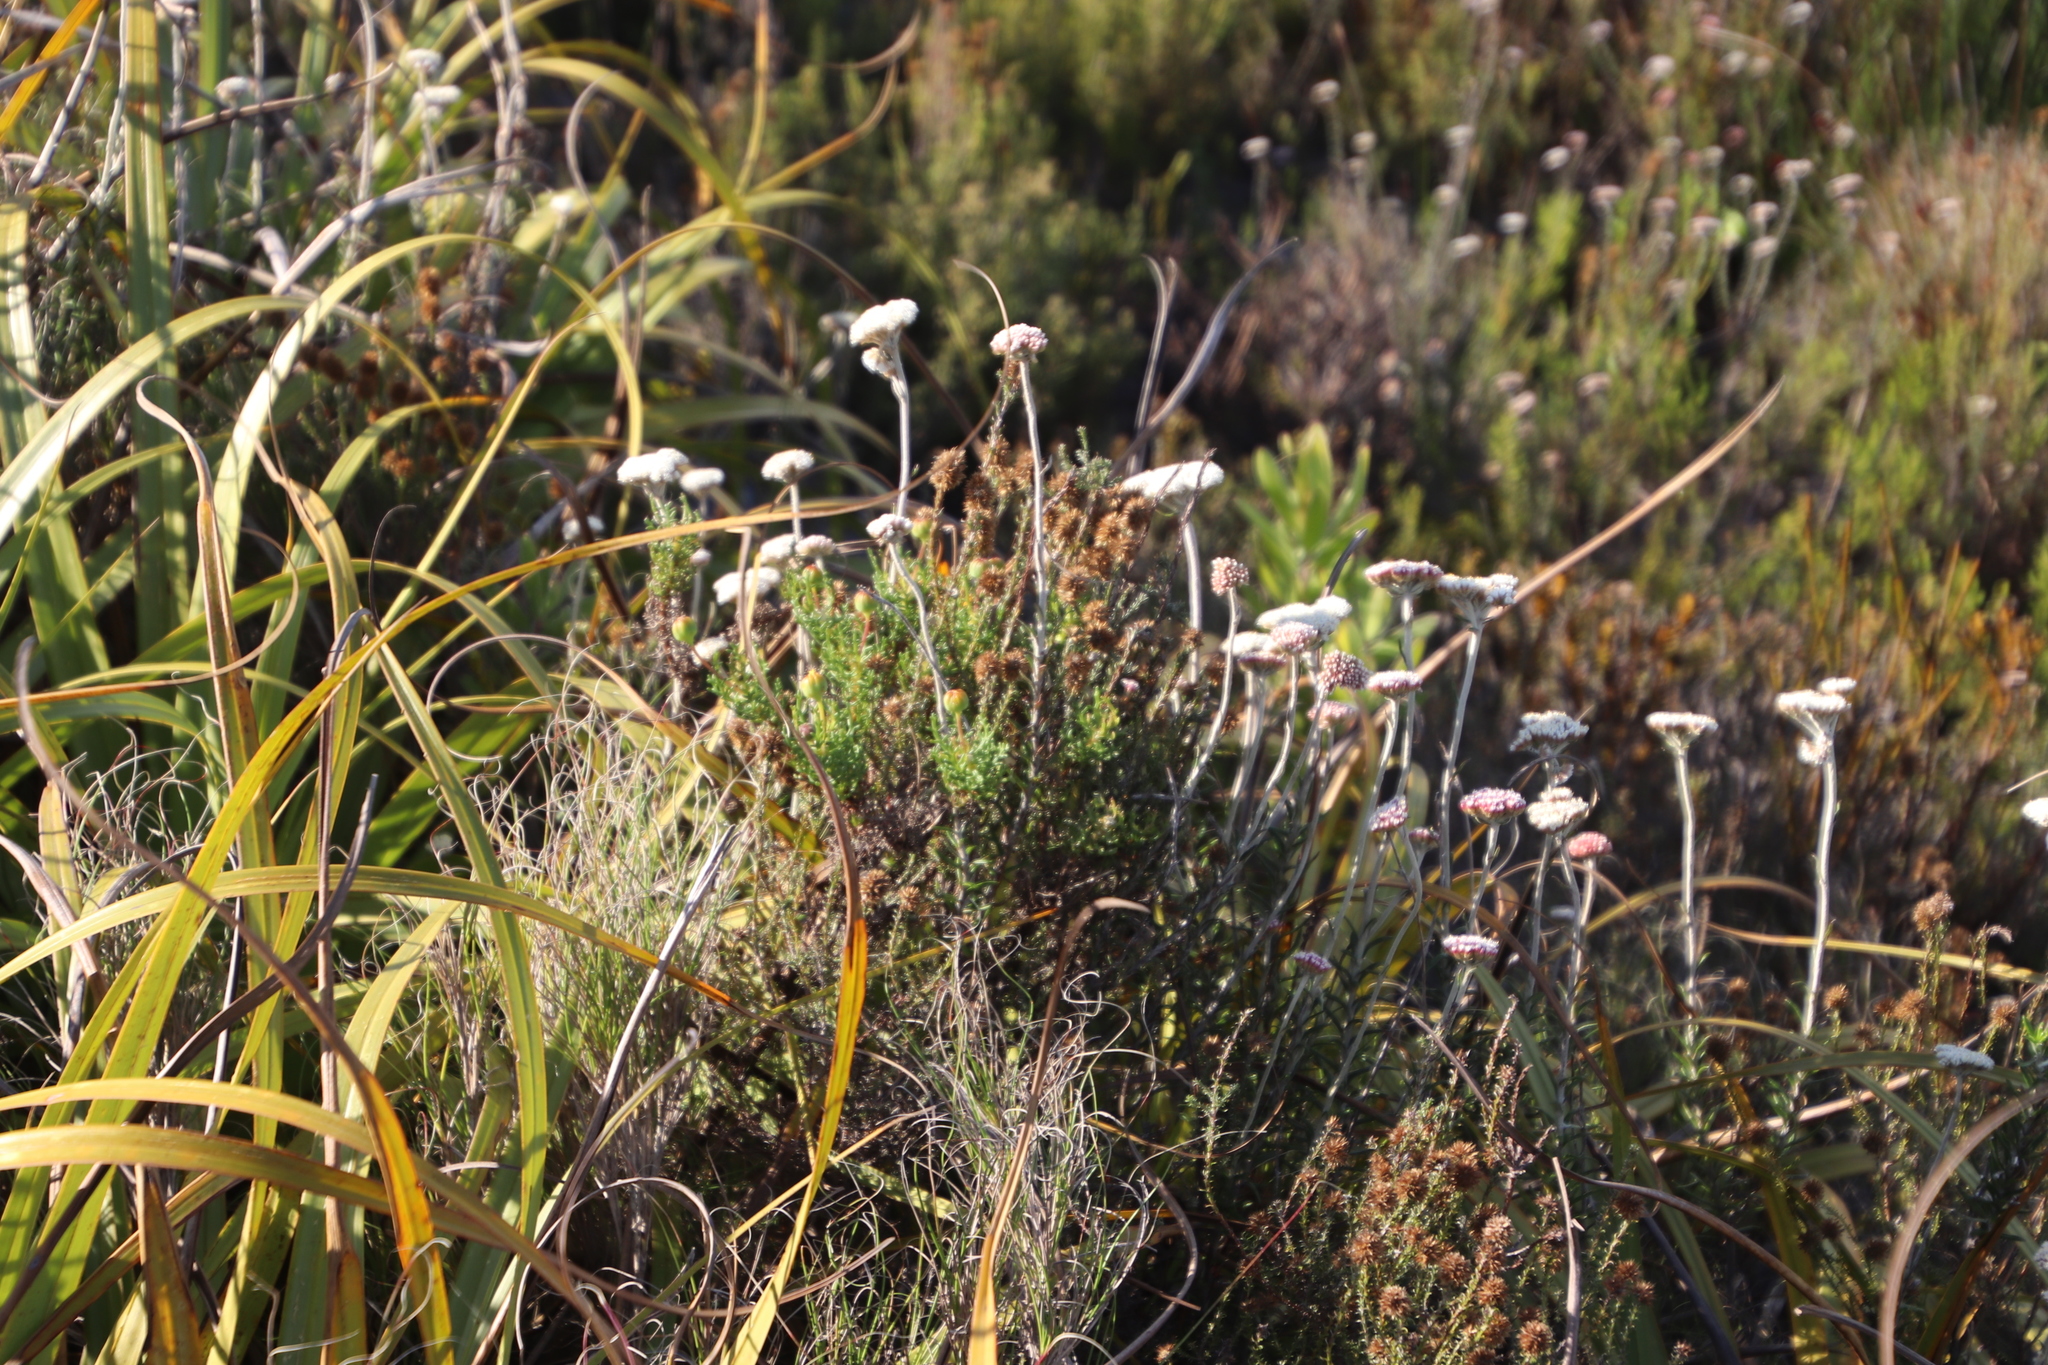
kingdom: Plantae
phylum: Tracheophyta
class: Magnoliopsida
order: Asterales
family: Asteraceae
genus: Anaxeton
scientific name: Anaxeton arborescens
